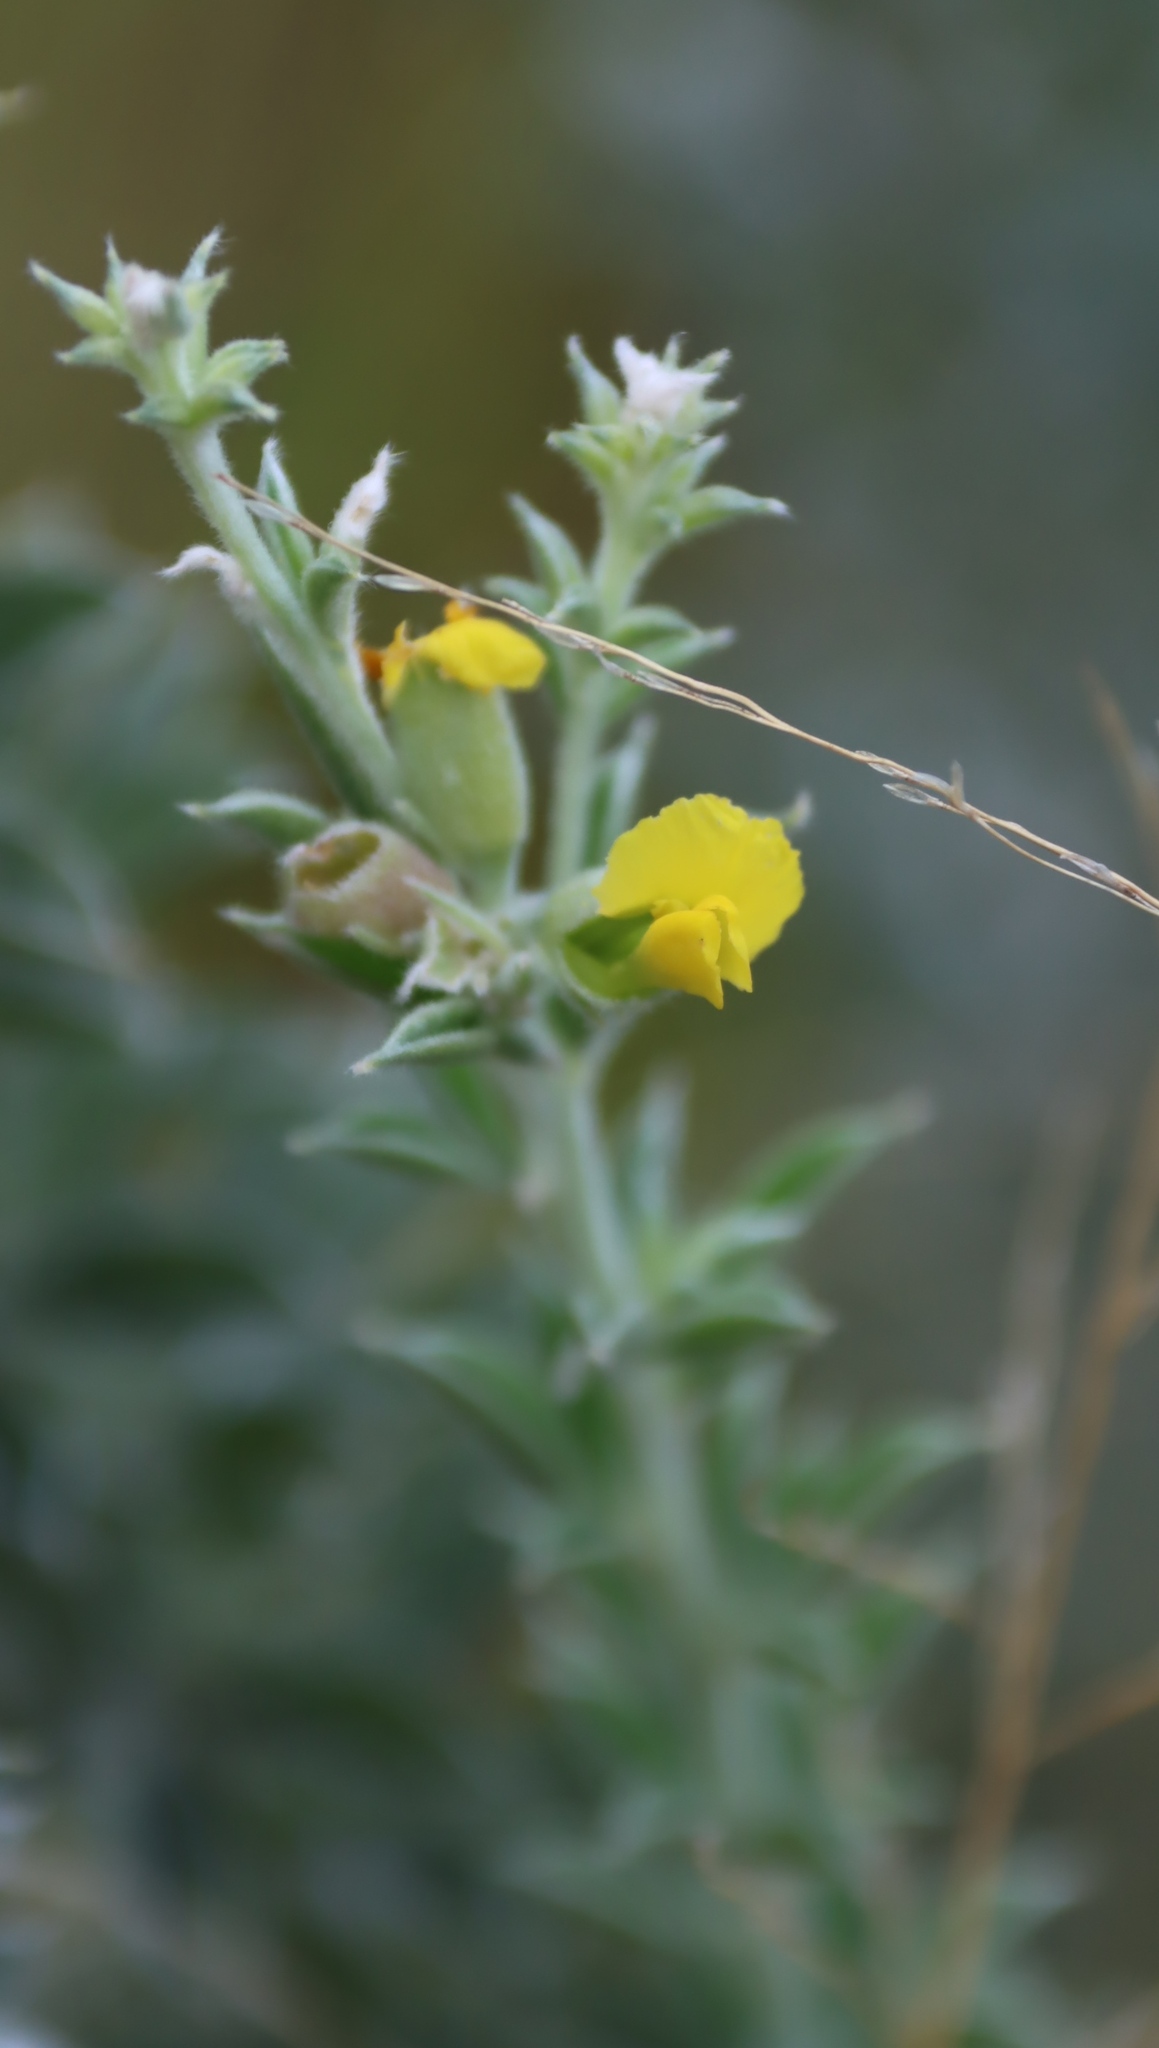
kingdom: Plantae
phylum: Tracheophyta
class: Magnoliopsida
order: Fabales
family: Fabaceae
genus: Pearsonia
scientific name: Pearsonia sessilifolia
